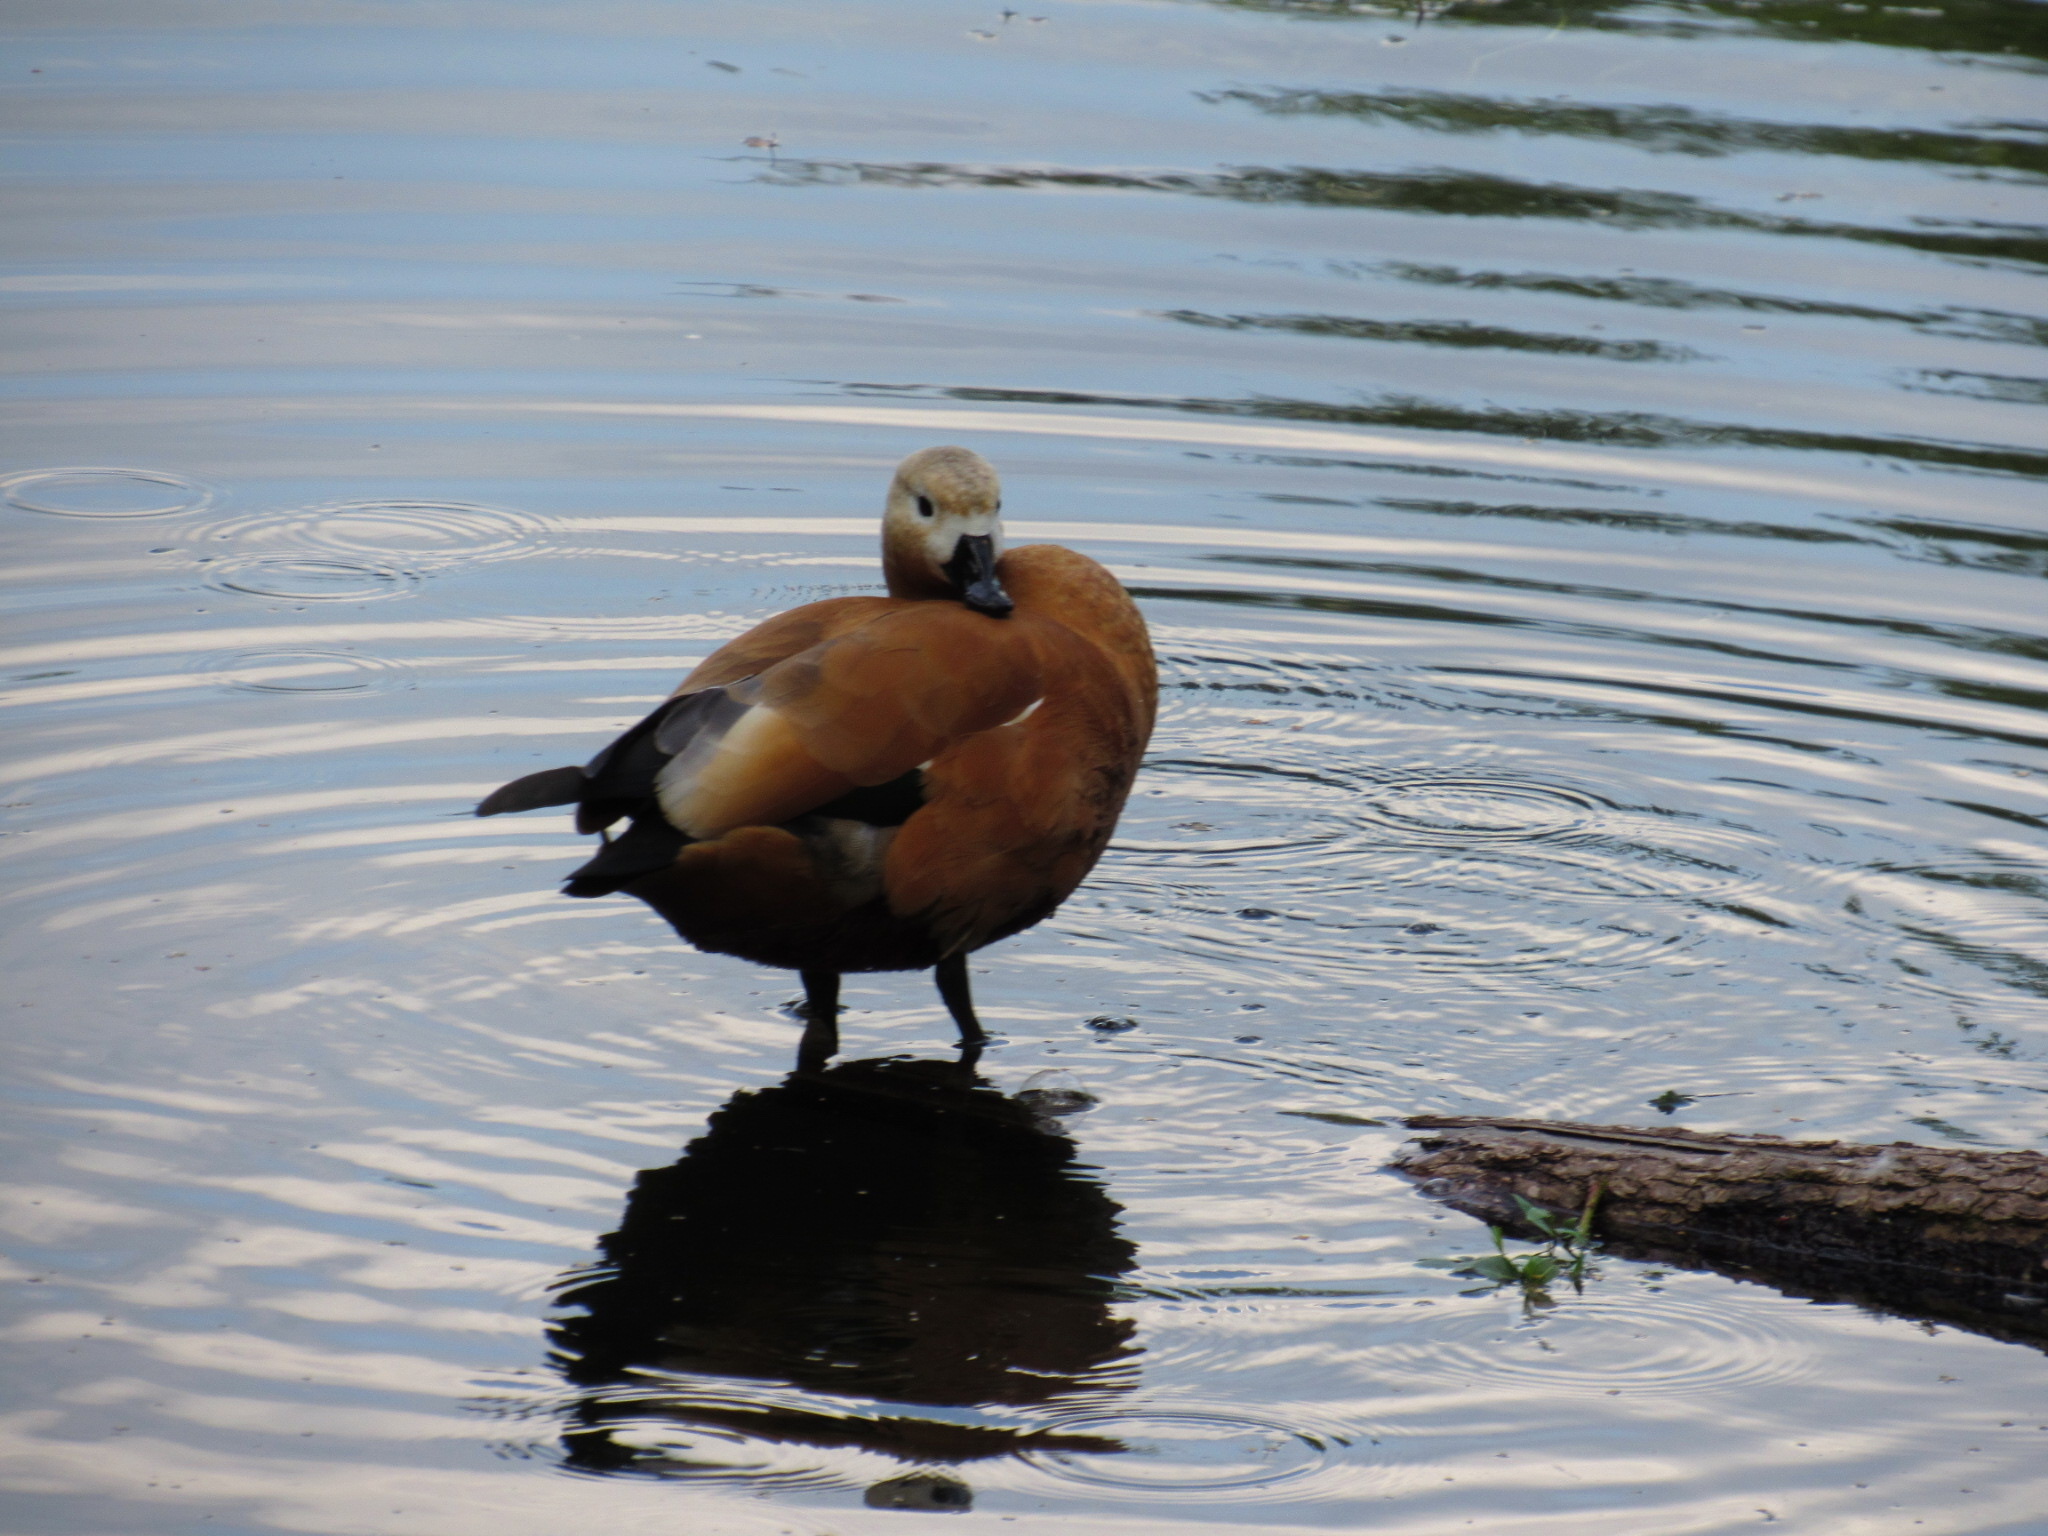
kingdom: Animalia
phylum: Chordata
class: Aves
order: Anseriformes
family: Anatidae
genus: Tadorna
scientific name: Tadorna ferruginea
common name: Ruddy shelduck
